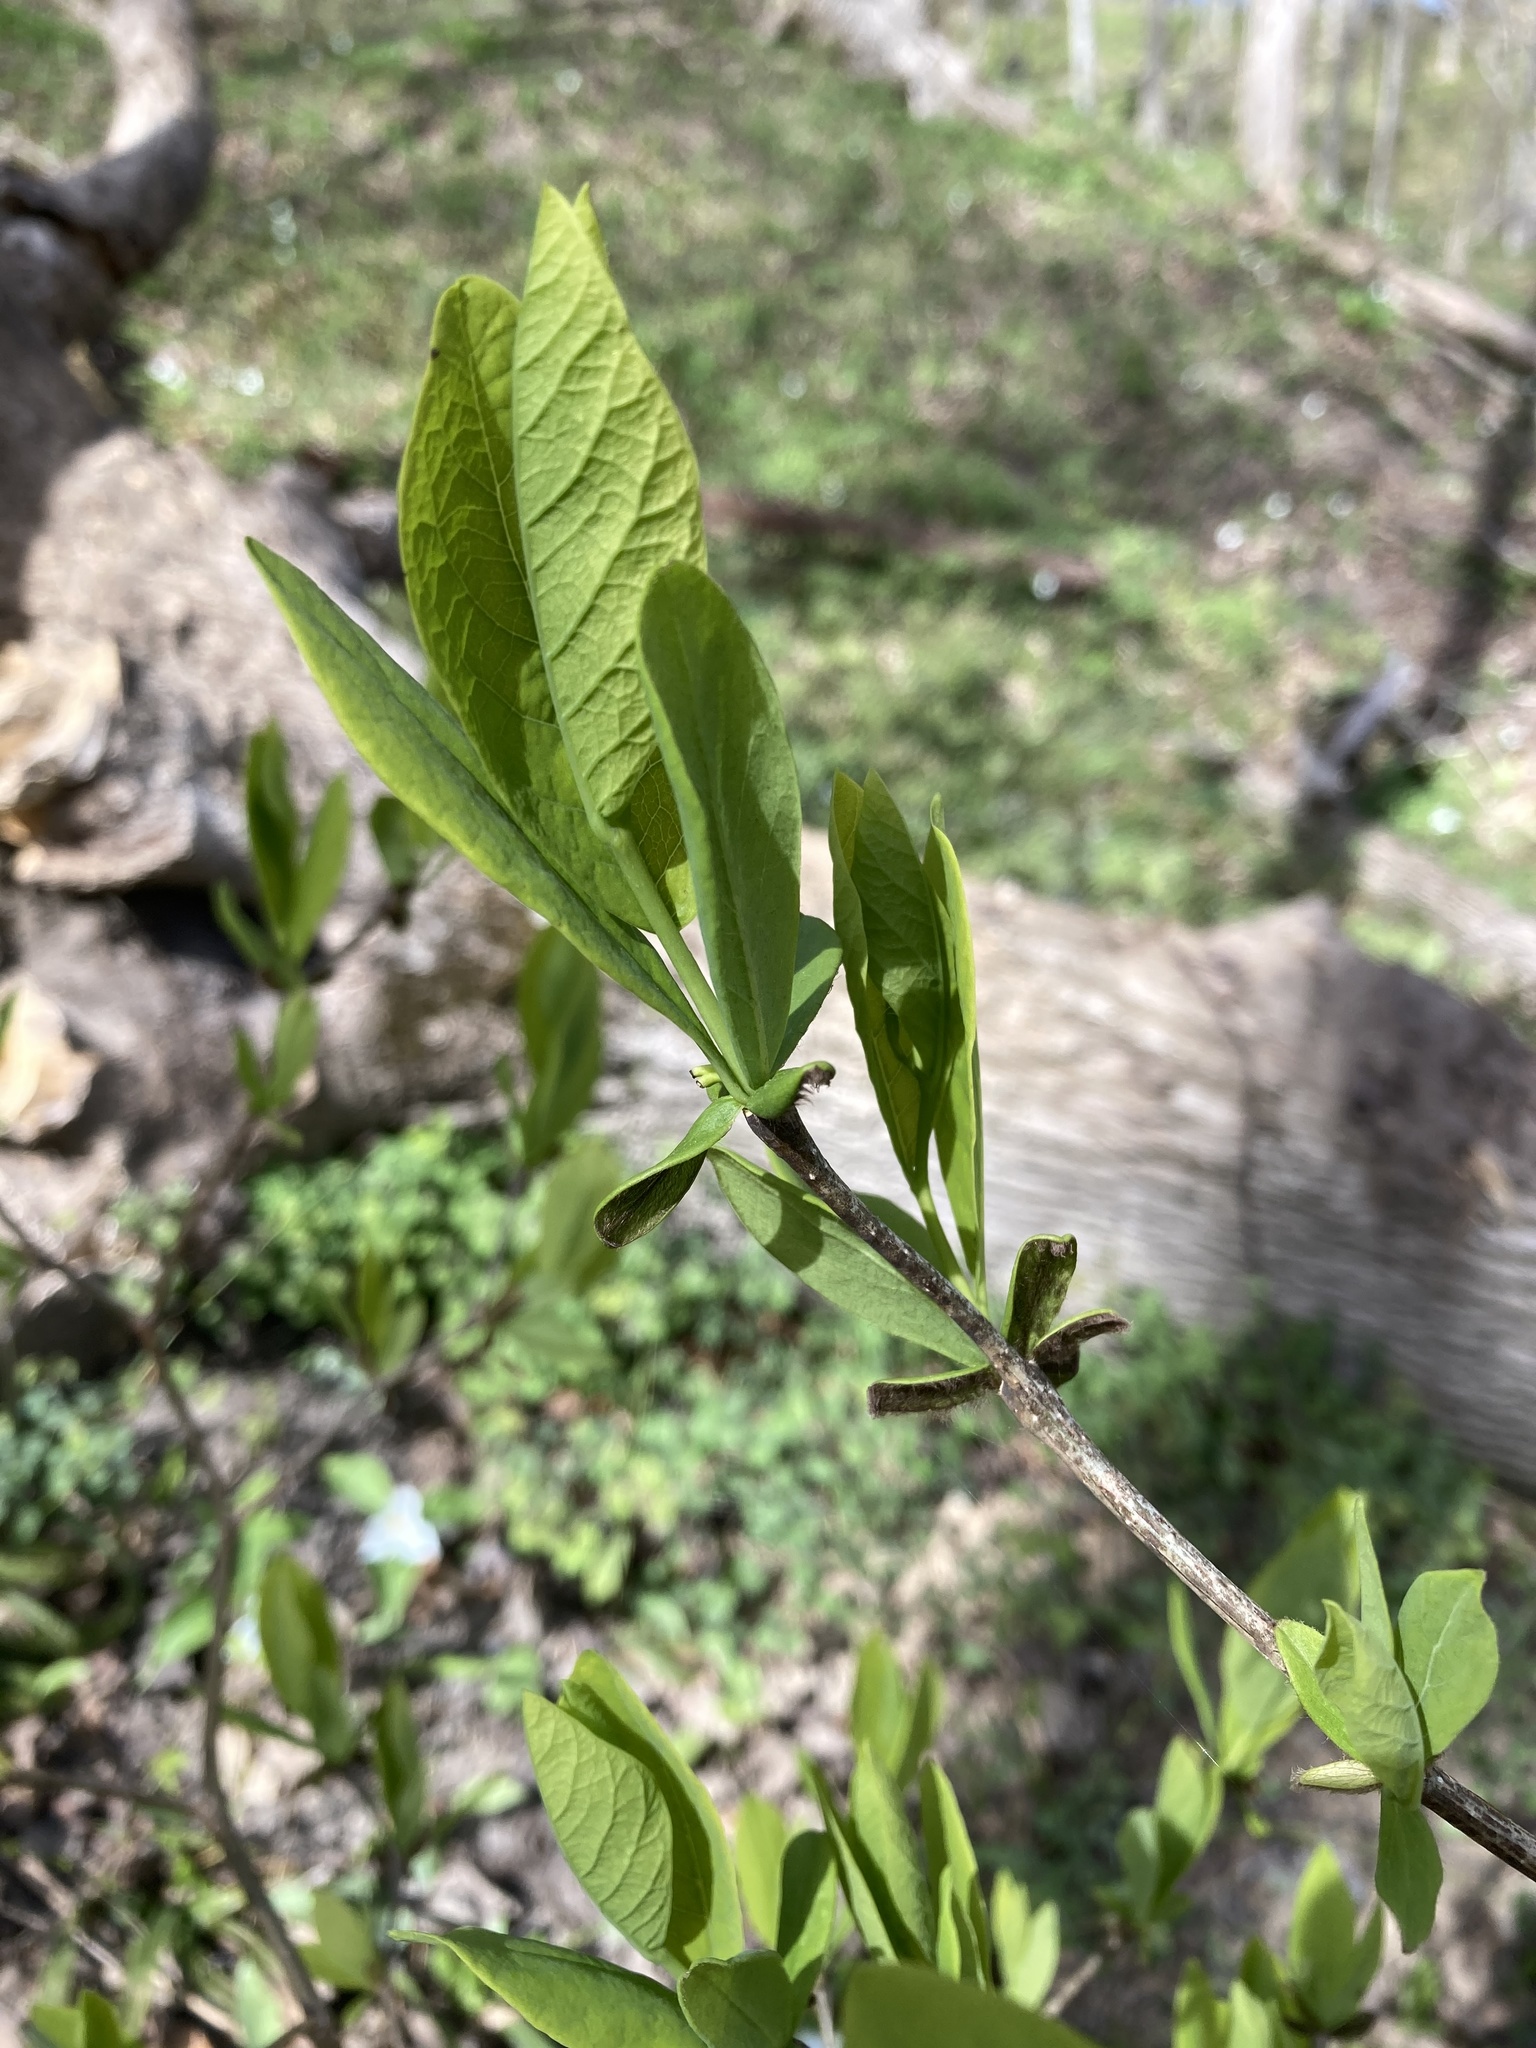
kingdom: Plantae
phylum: Tracheophyta
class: Magnoliopsida
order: Malvales
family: Thymelaeaceae
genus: Dirca
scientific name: Dirca palustris
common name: Leatherwood
